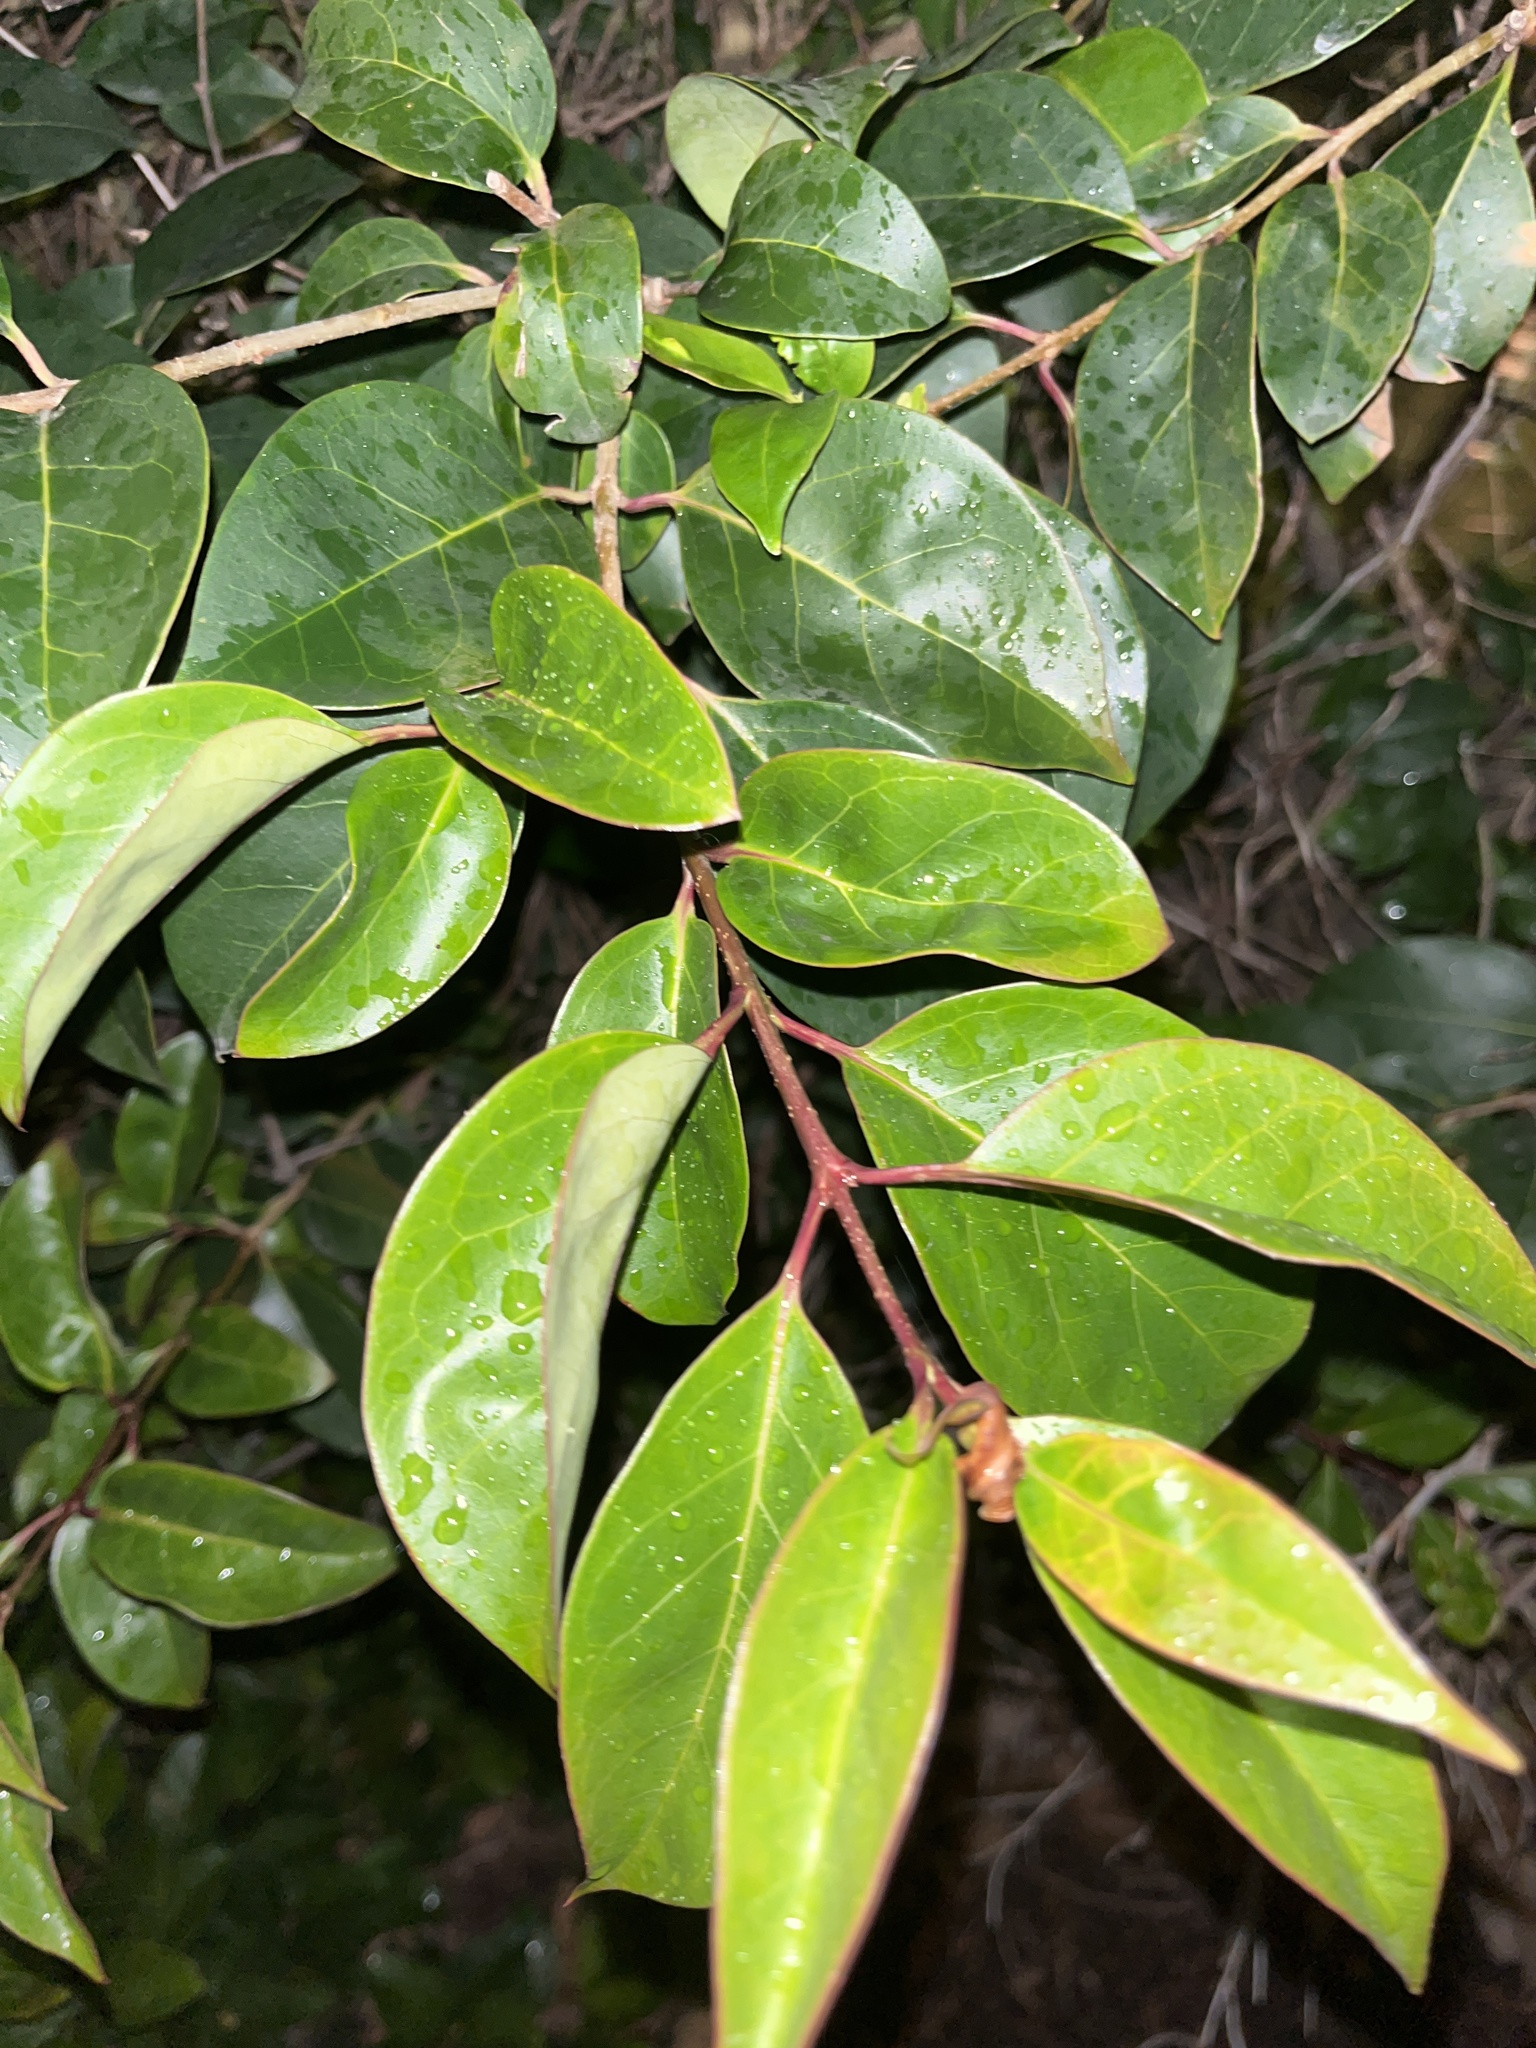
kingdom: Plantae
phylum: Tracheophyta
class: Magnoliopsida
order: Lamiales
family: Oleaceae
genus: Ligustrum
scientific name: Ligustrum lucidum
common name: Glossy privet
